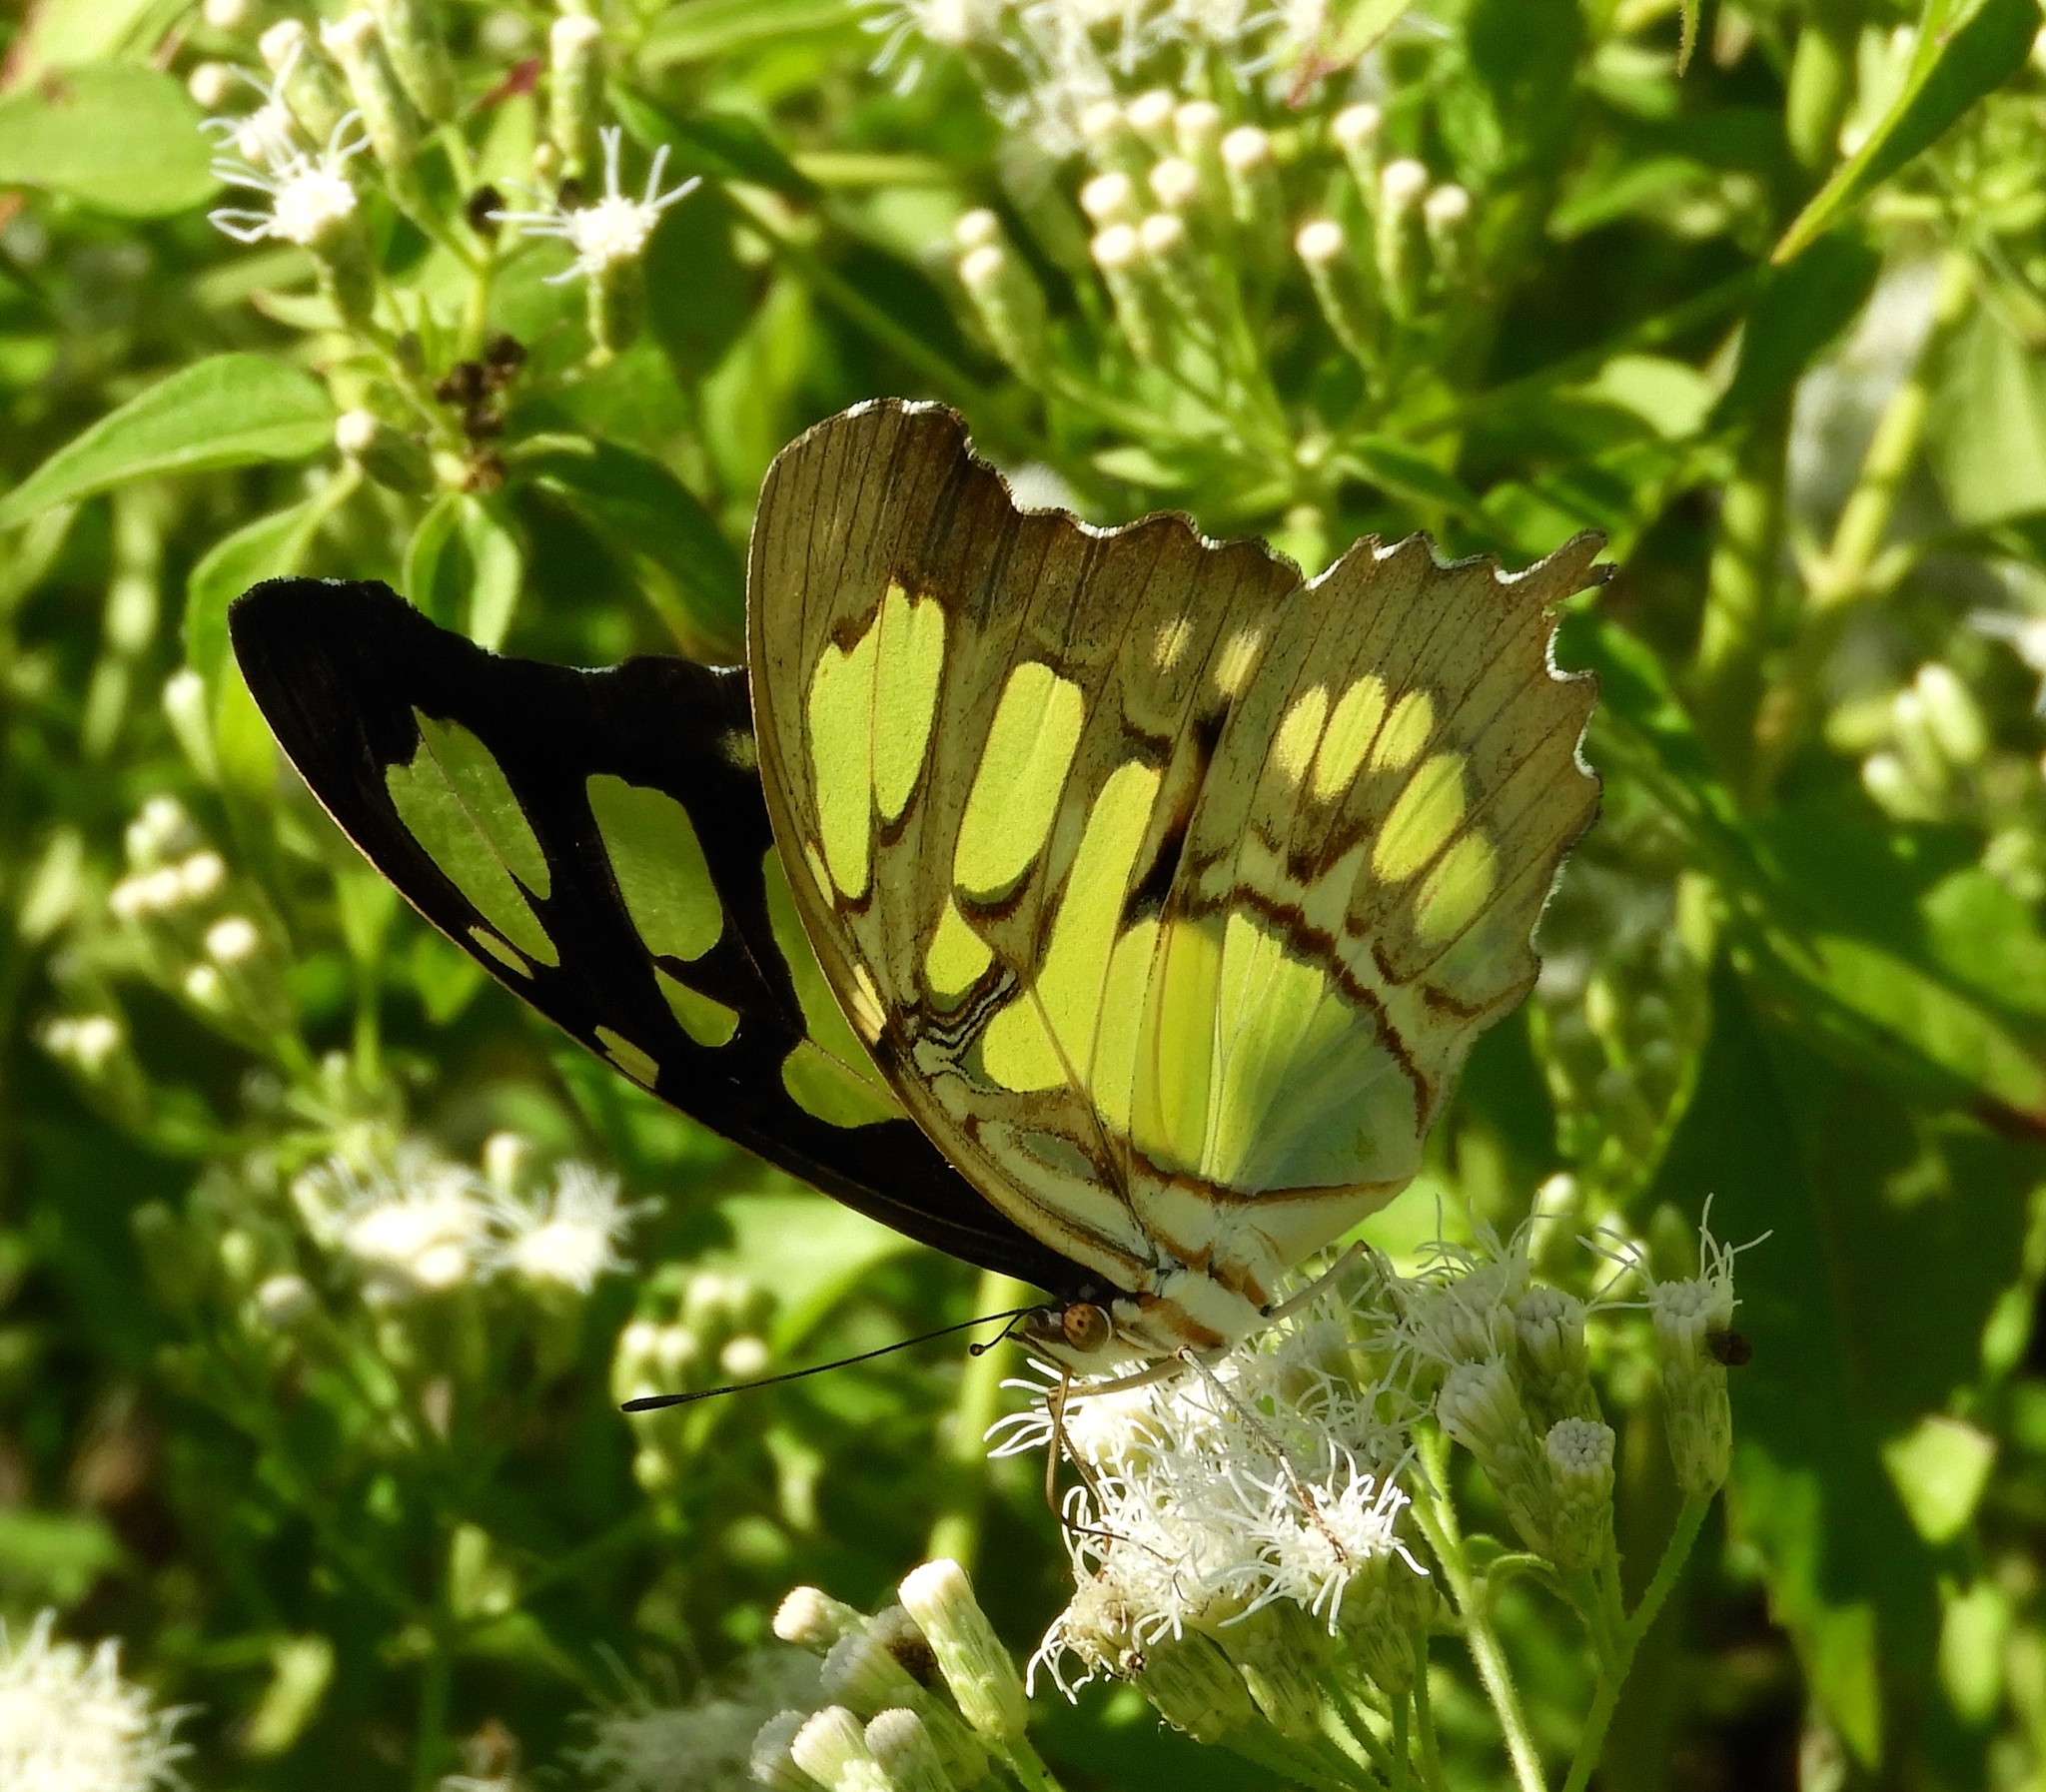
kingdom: Animalia
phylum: Arthropoda
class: Insecta
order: Lepidoptera
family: Nymphalidae
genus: Siproeta
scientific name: Siproeta stelenes
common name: Malachite
